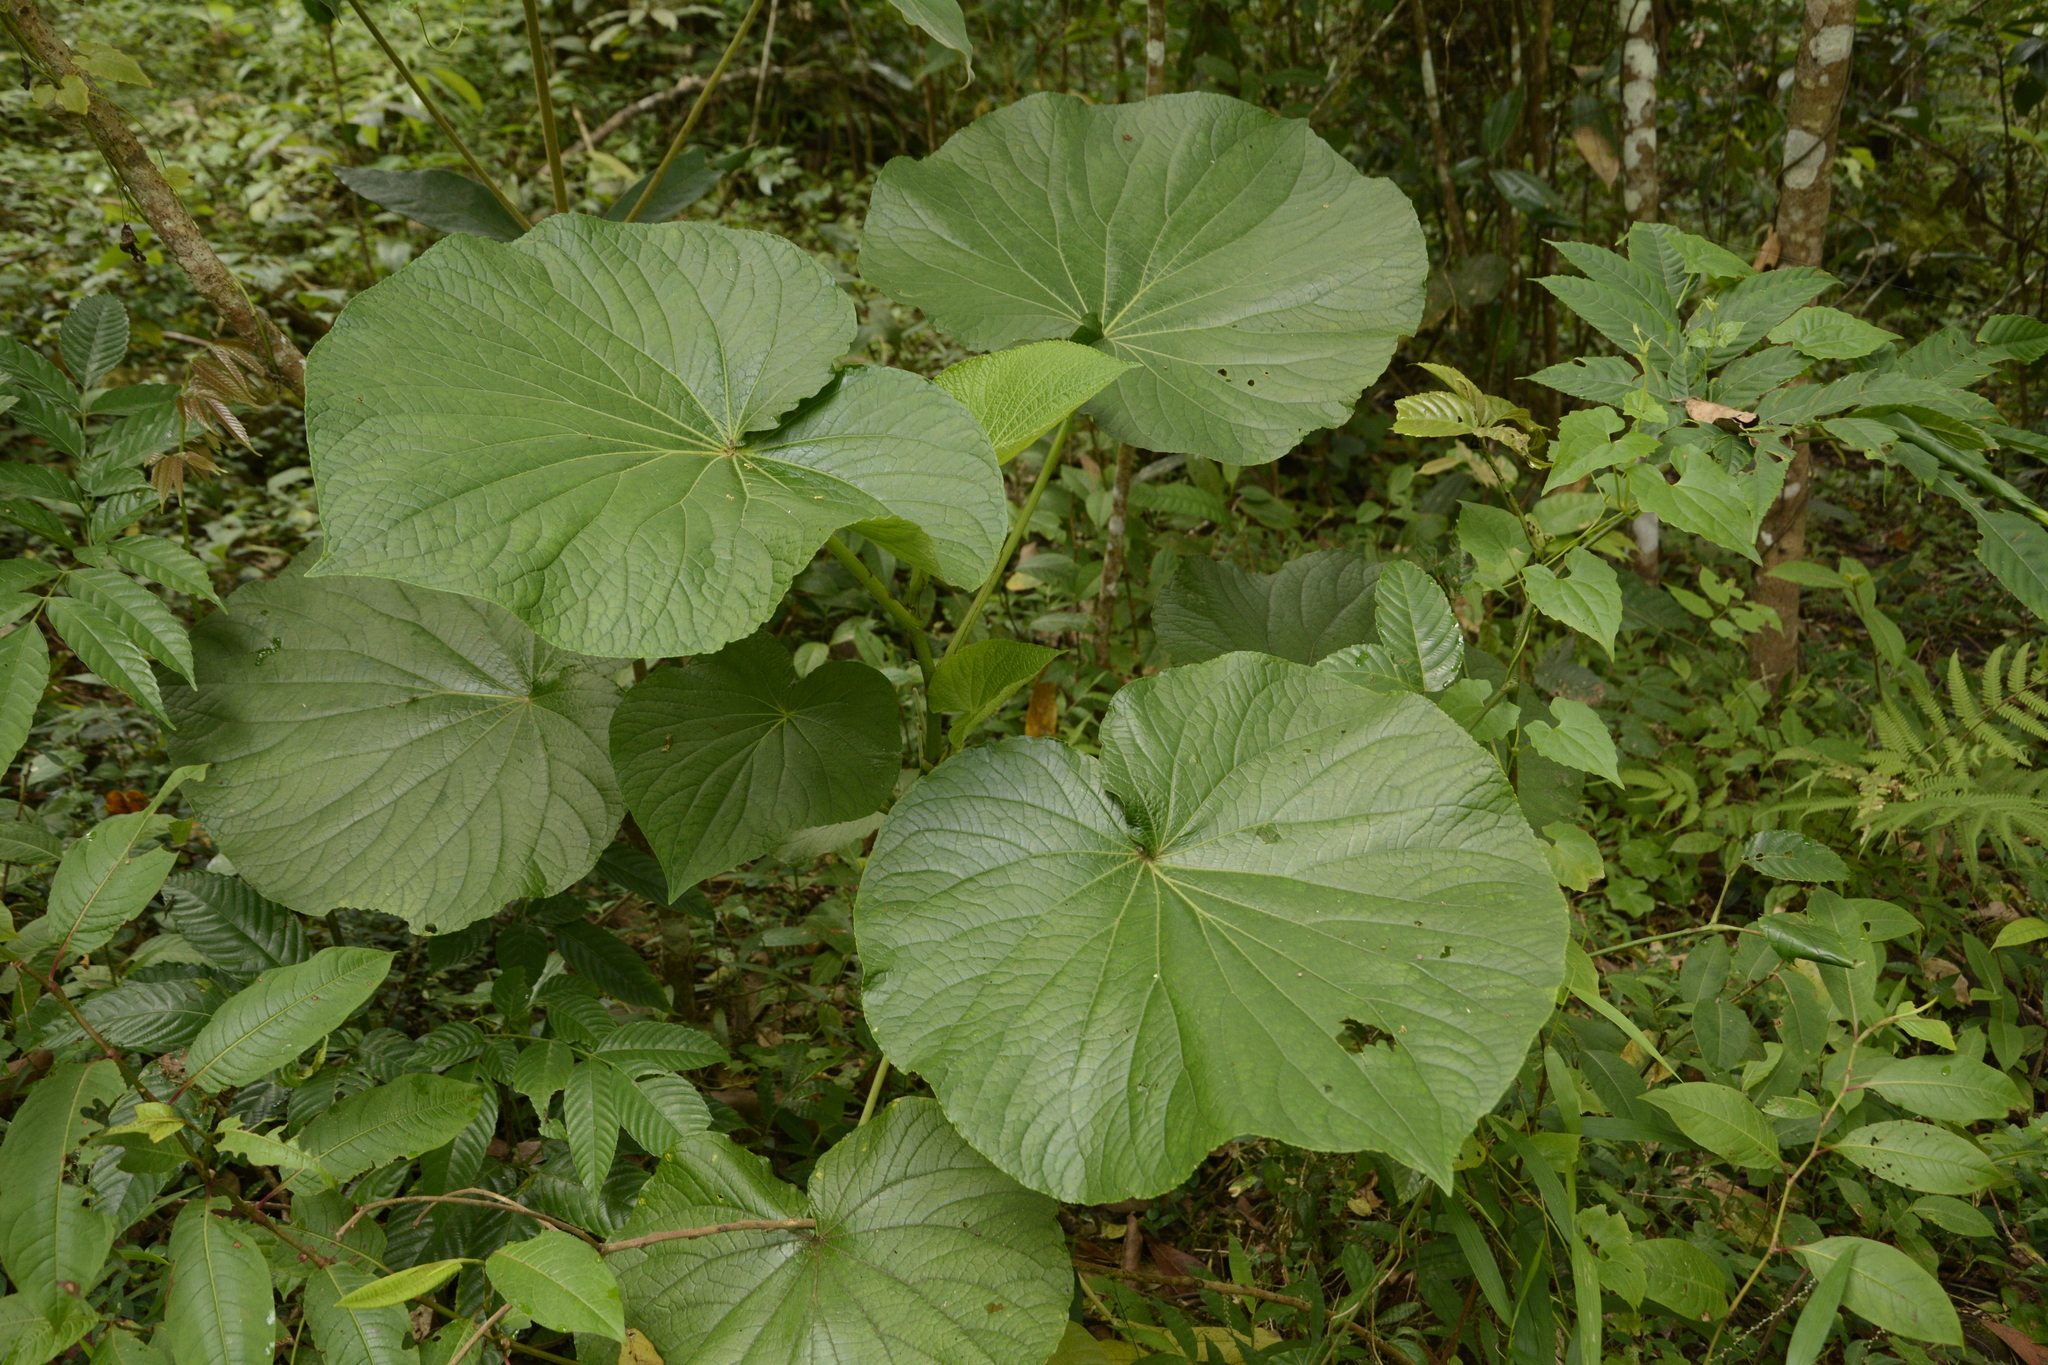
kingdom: Plantae
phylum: Tracheophyta
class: Magnoliopsida
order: Piperales
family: Piperaceae
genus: Piper
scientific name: Piper umbellatum
